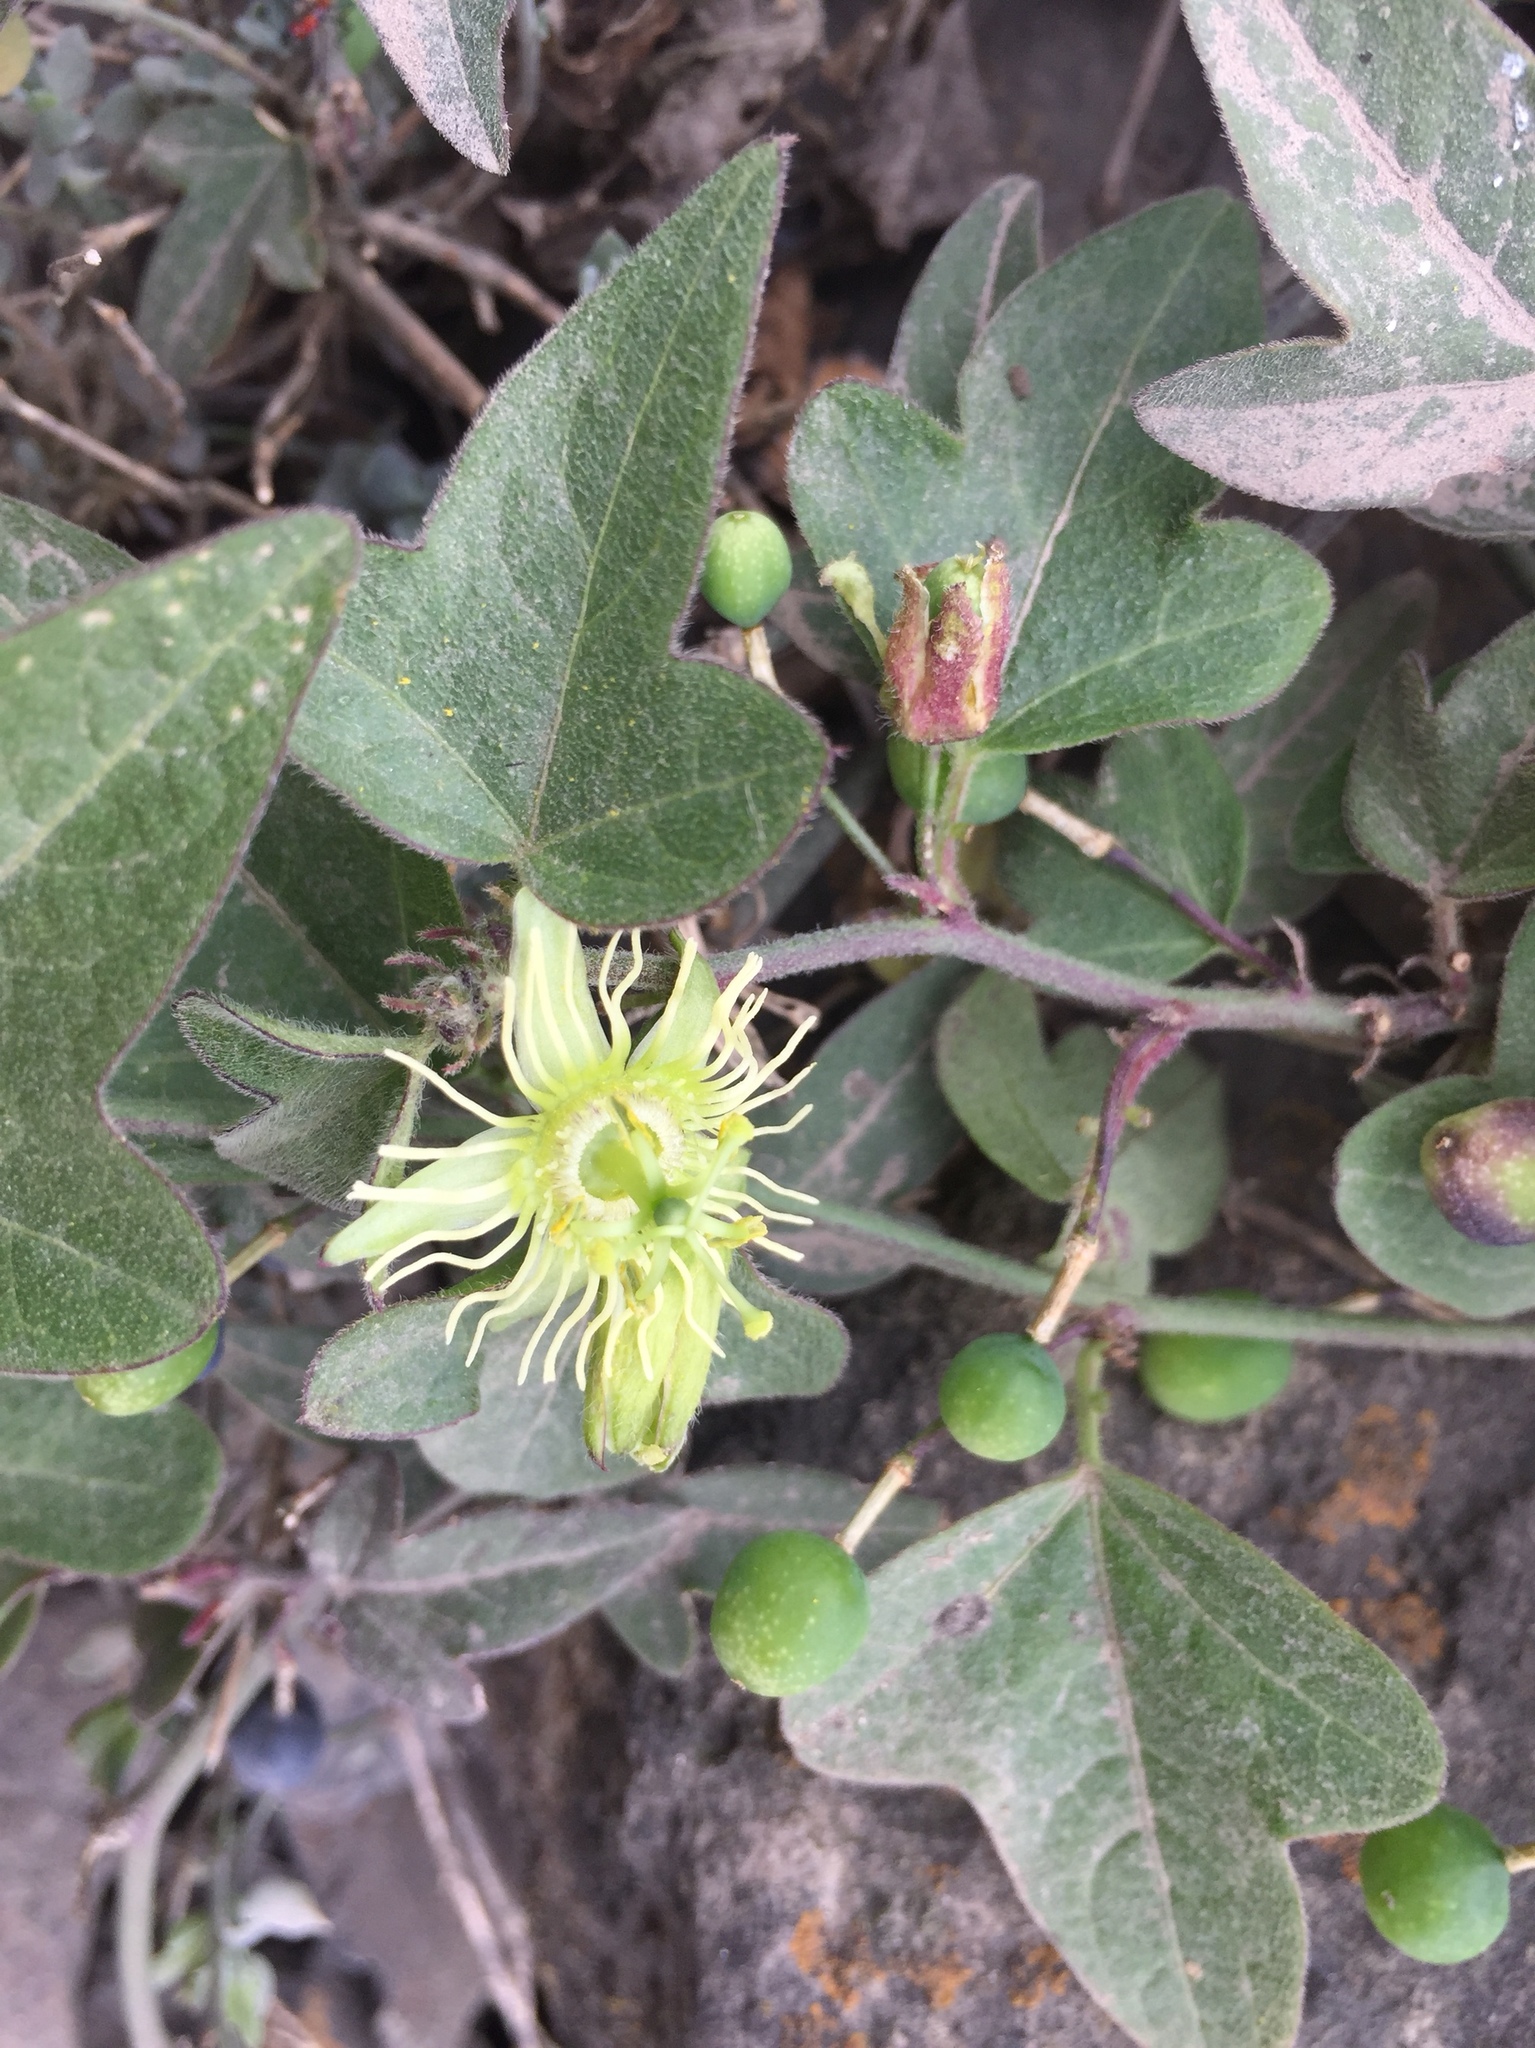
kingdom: Plantae
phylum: Tracheophyta
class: Magnoliopsida
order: Malpighiales
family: Passifloraceae
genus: Passiflora
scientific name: Passiflora suberosa
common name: Wild passionfruit
